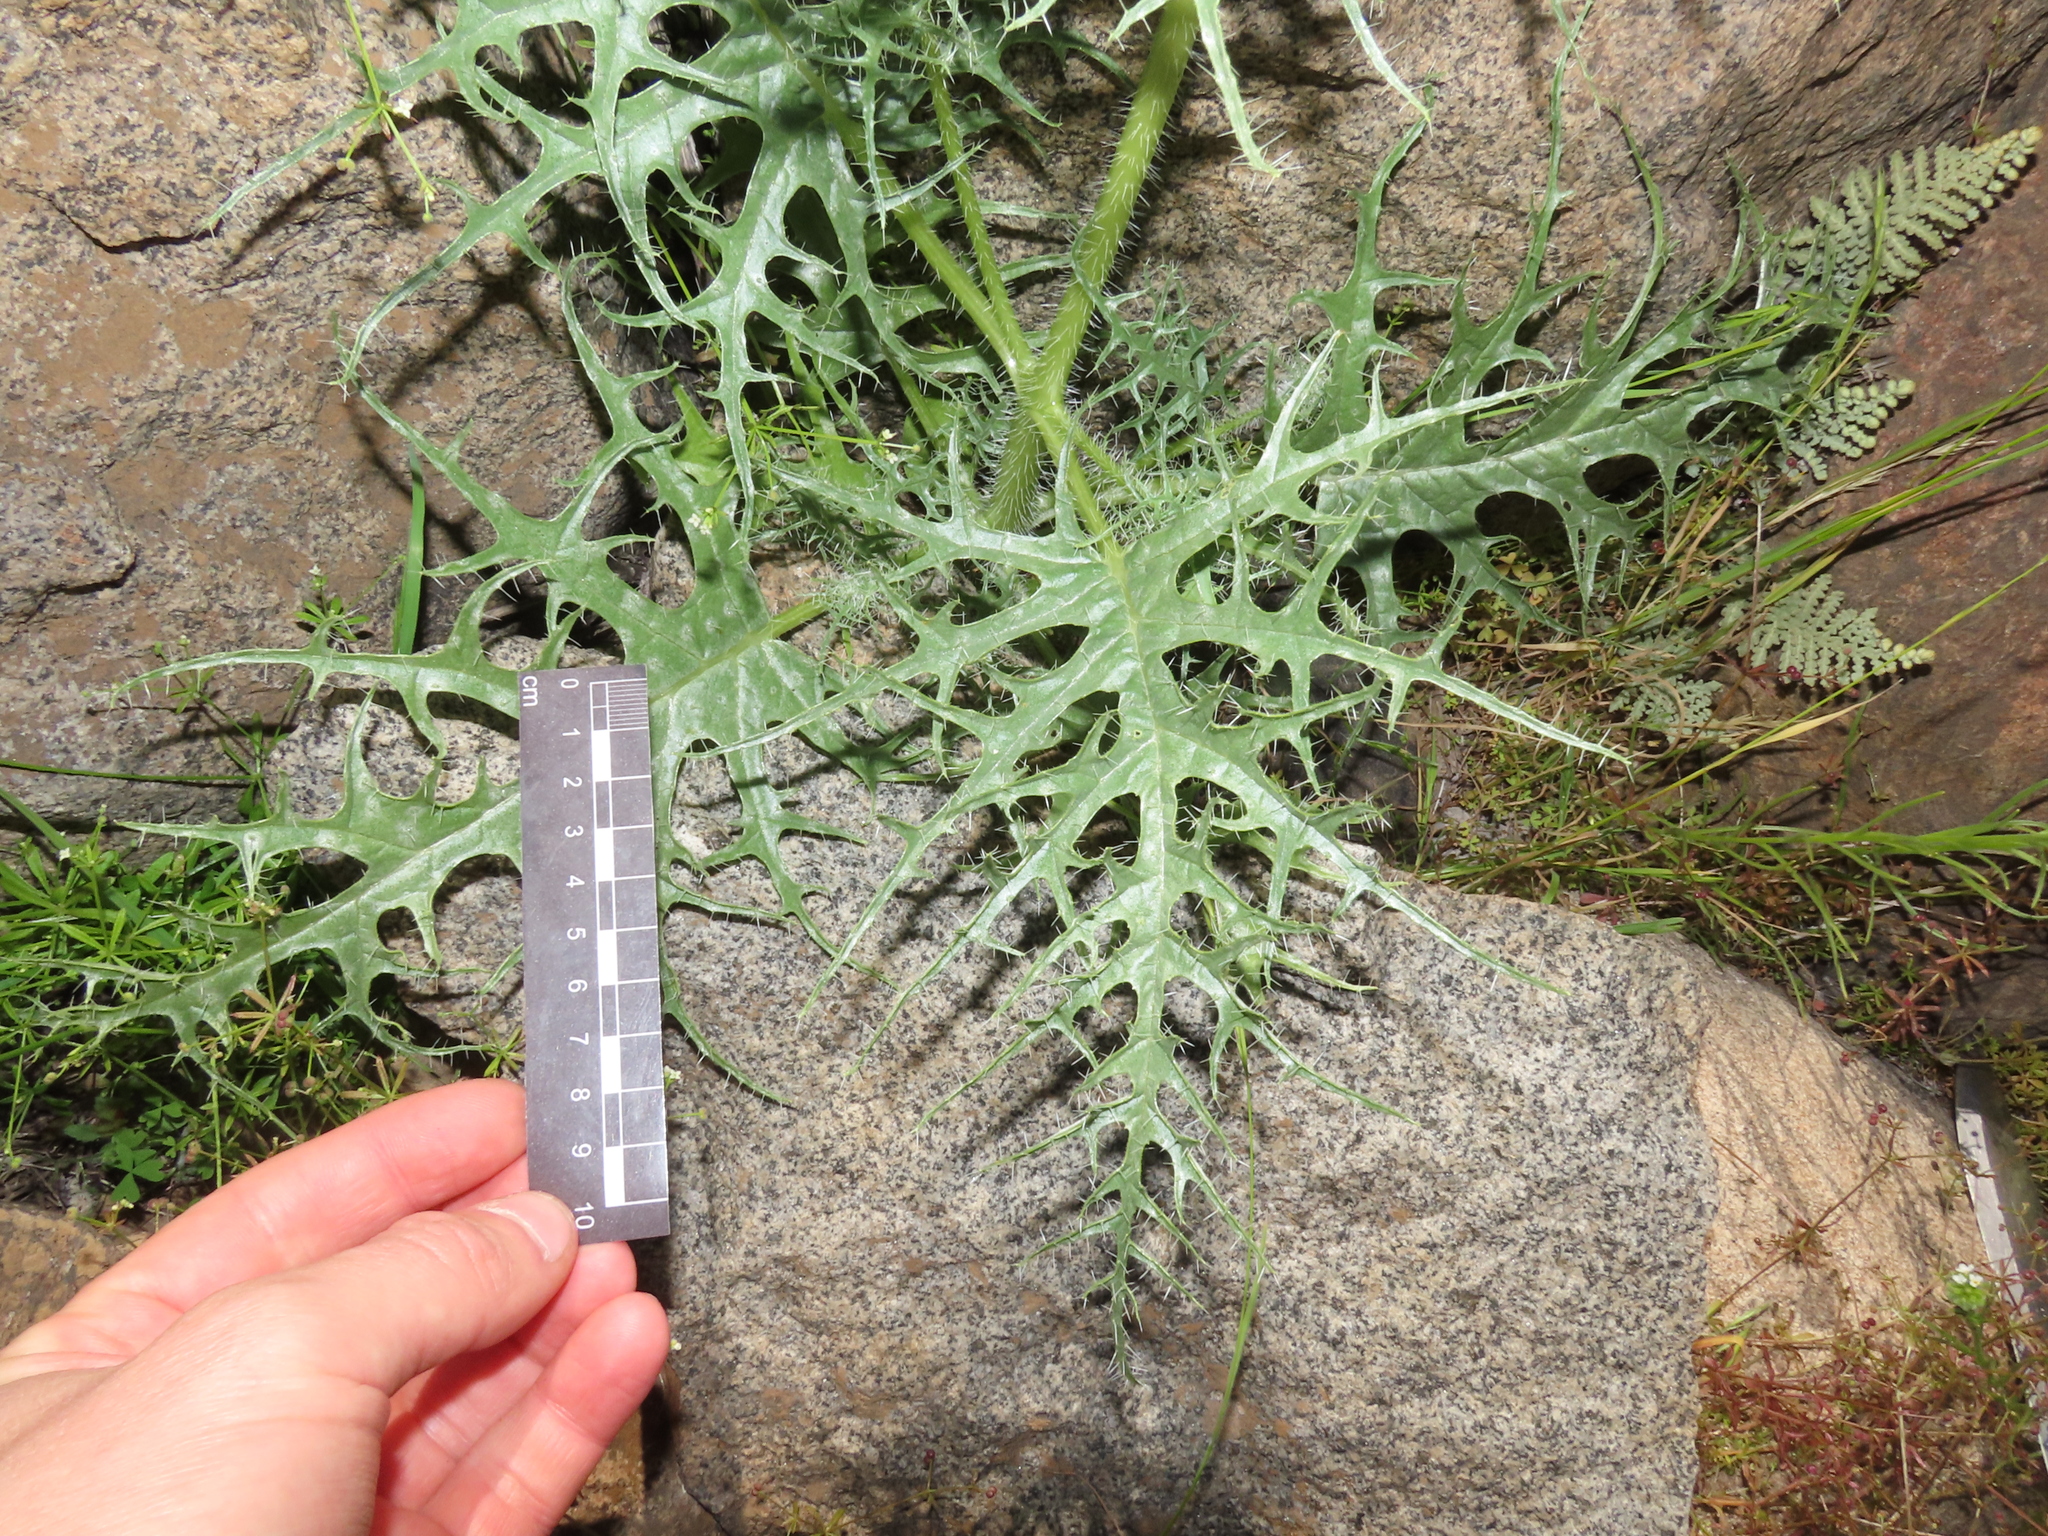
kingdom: Plantae
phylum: Tracheophyta
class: Magnoliopsida
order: Cornales
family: Loasaceae
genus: Loasa
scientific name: Loasa illapelina
